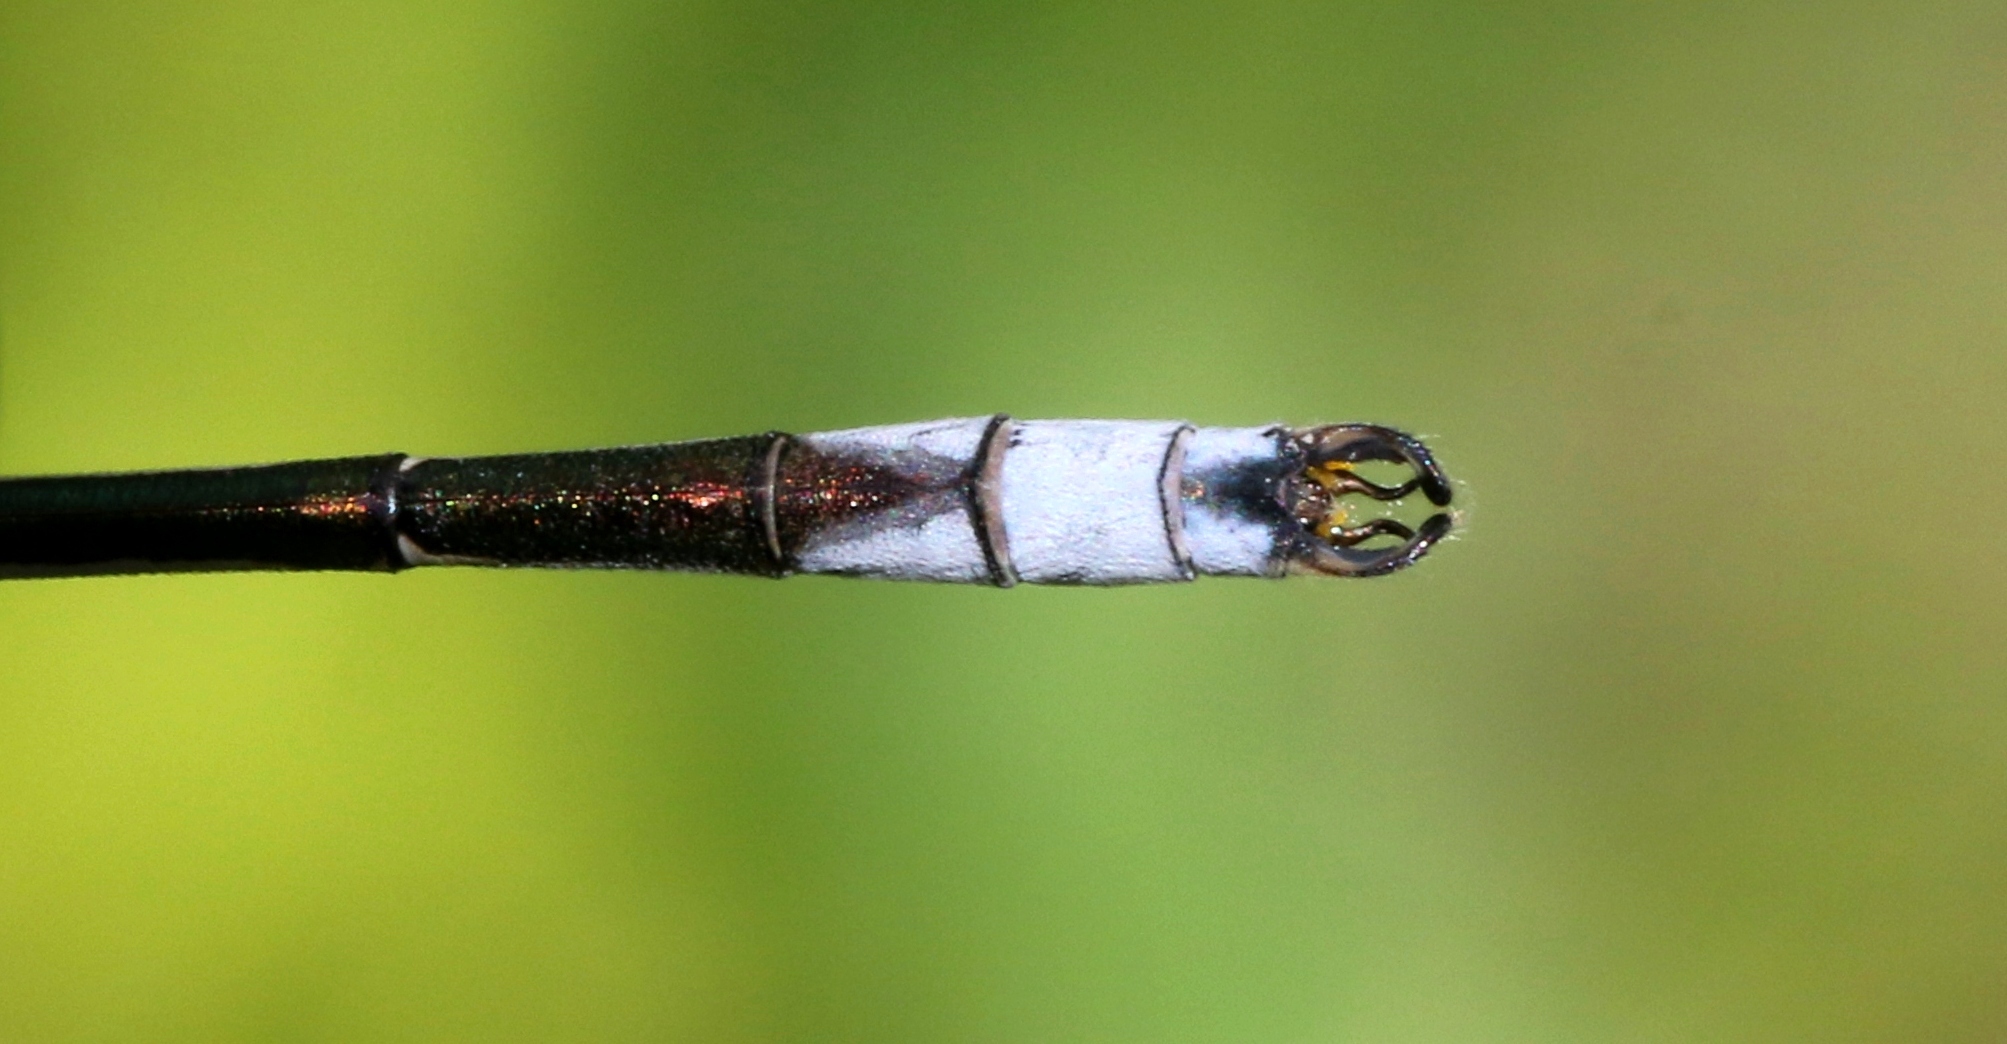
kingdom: Animalia
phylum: Arthropoda
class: Insecta
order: Odonata
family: Lestidae
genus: Lestes
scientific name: Lestes unguiculatus
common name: Lyre-tipped spreadwing
